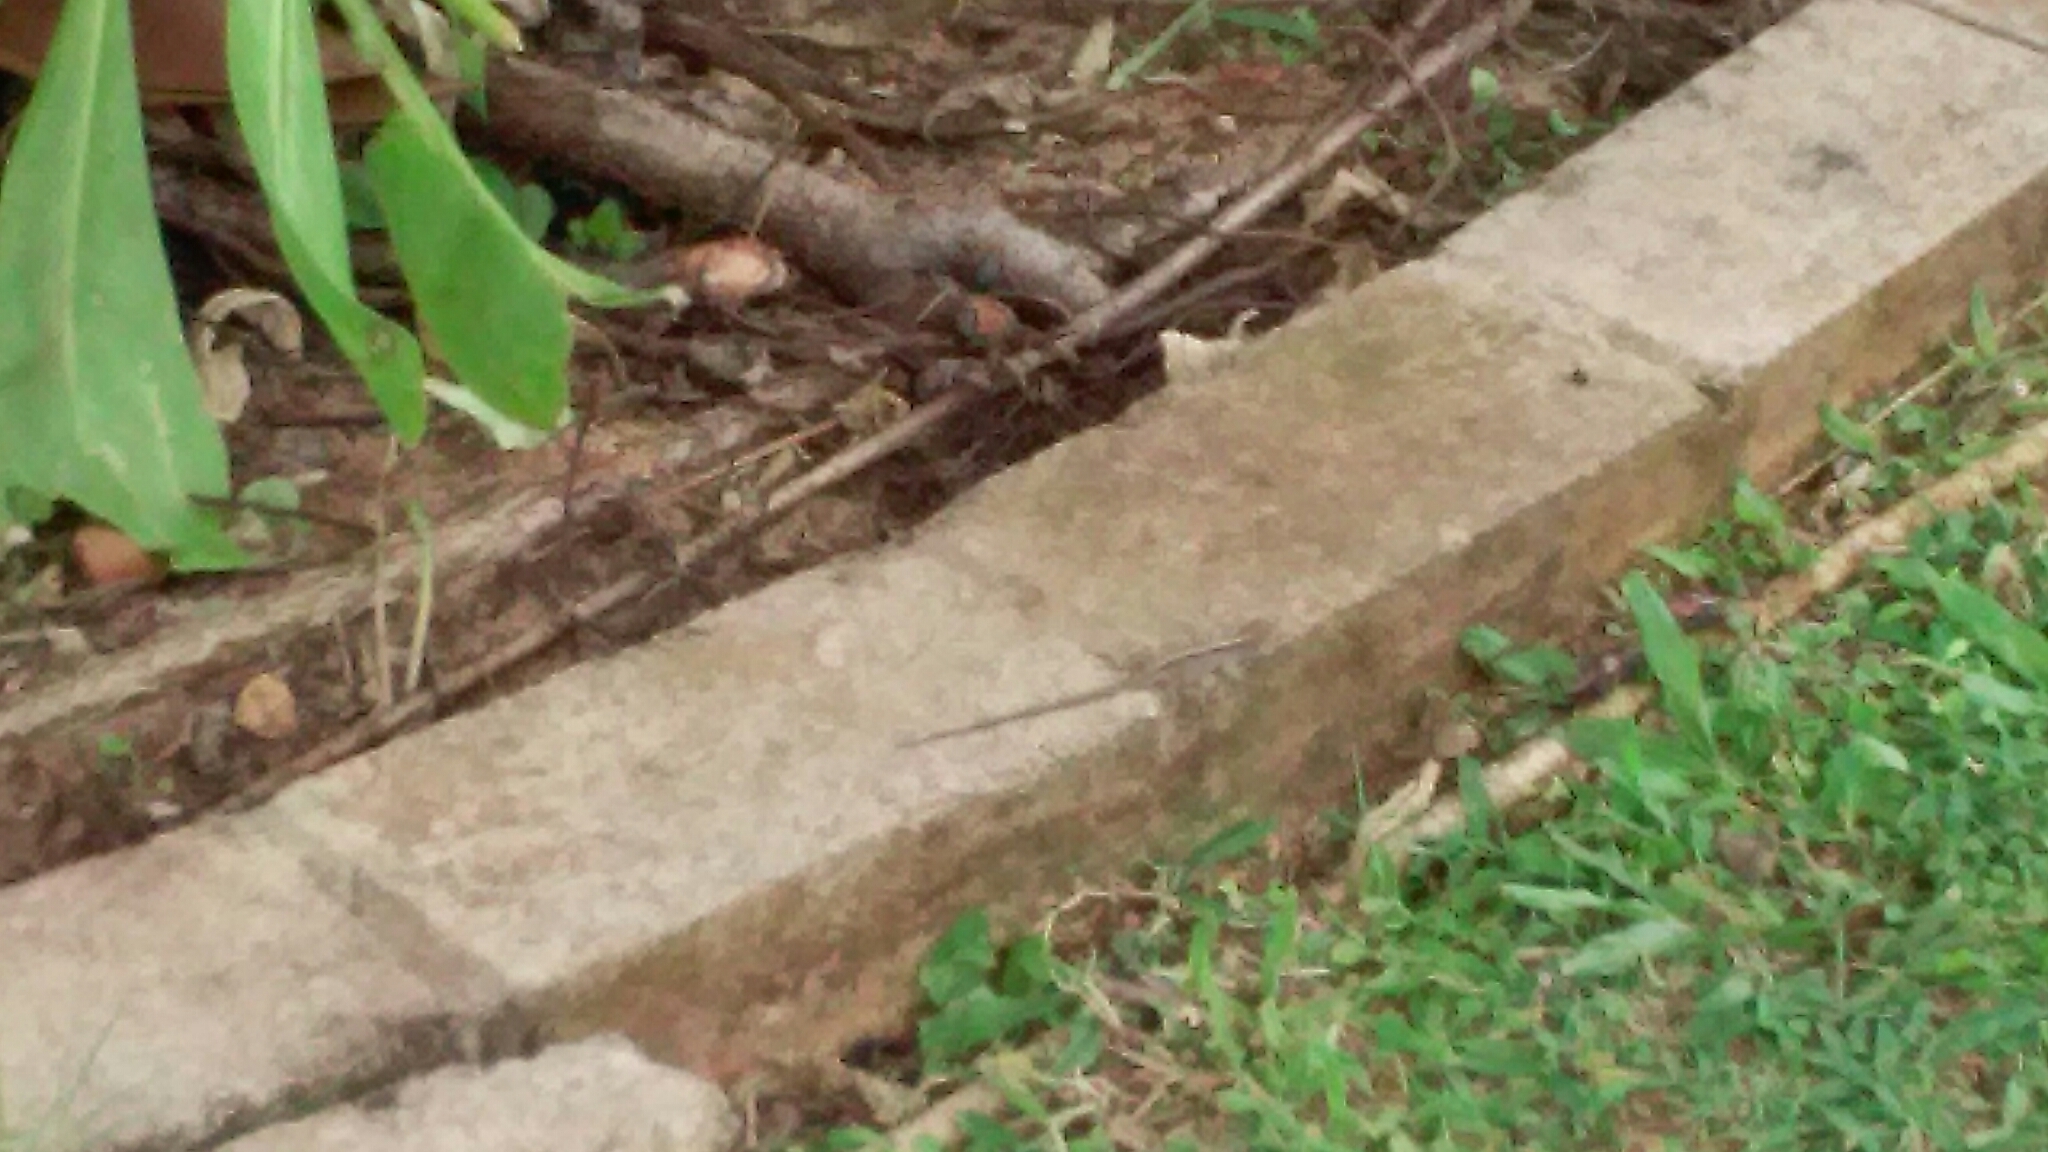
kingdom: Animalia
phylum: Chordata
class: Squamata
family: Dactyloidae
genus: Anolis
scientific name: Anolis sagrei
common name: Brown anole
